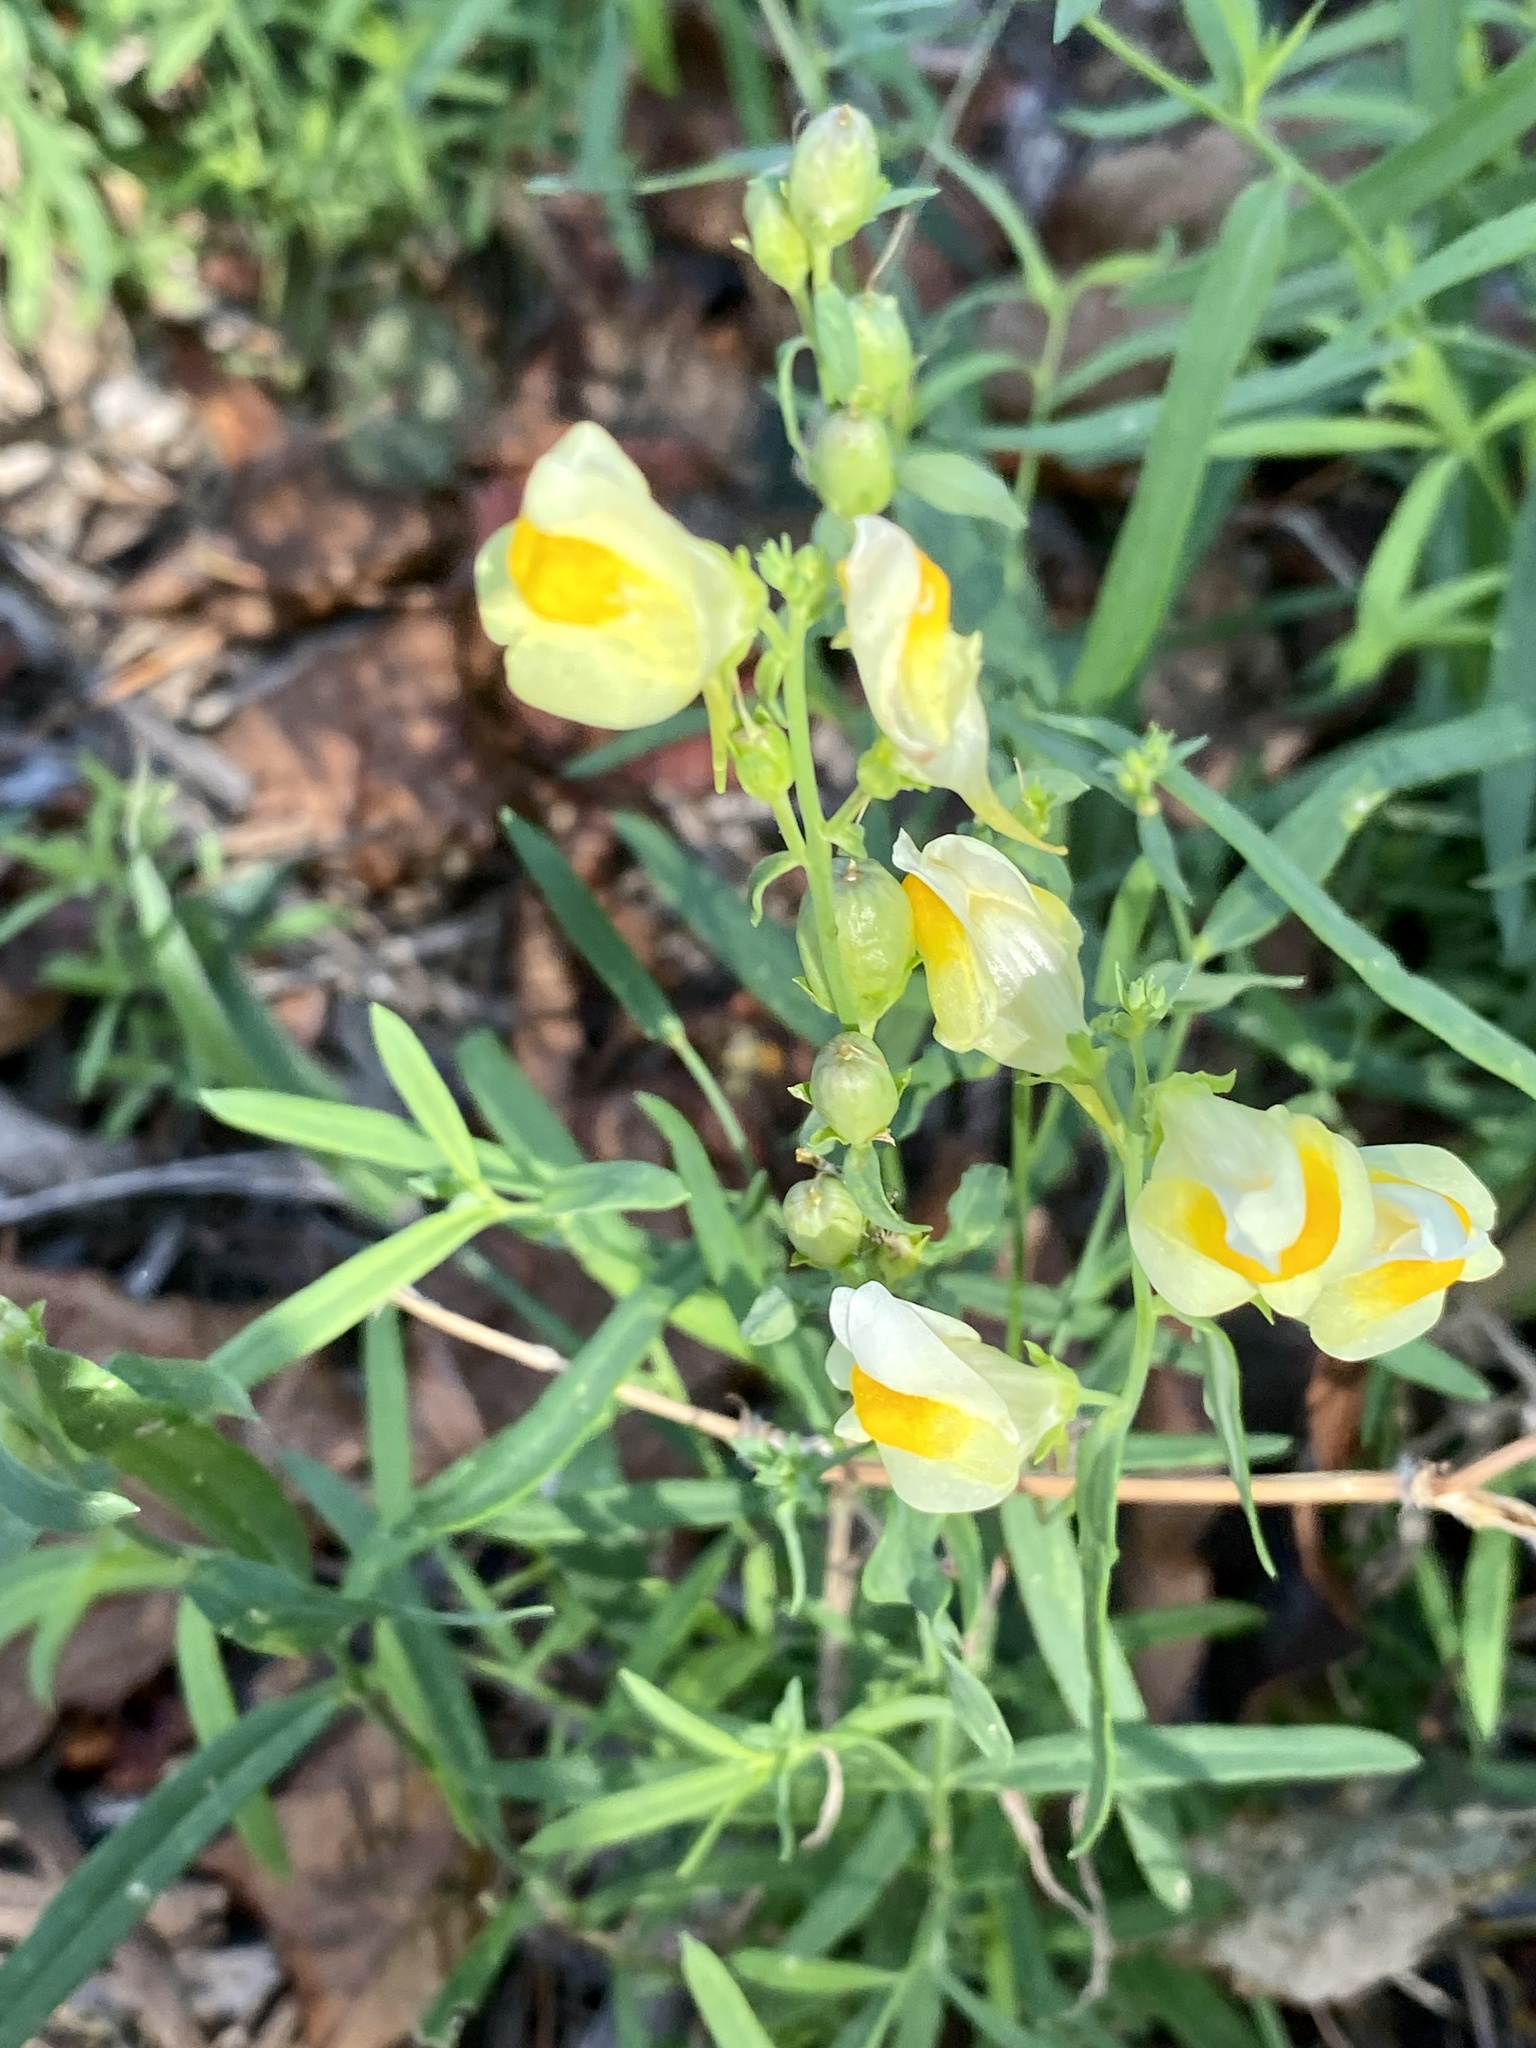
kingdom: Plantae
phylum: Tracheophyta
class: Magnoliopsida
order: Lamiales
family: Plantaginaceae
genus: Linaria
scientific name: Linaria vulgaris
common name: Butter and eggs
